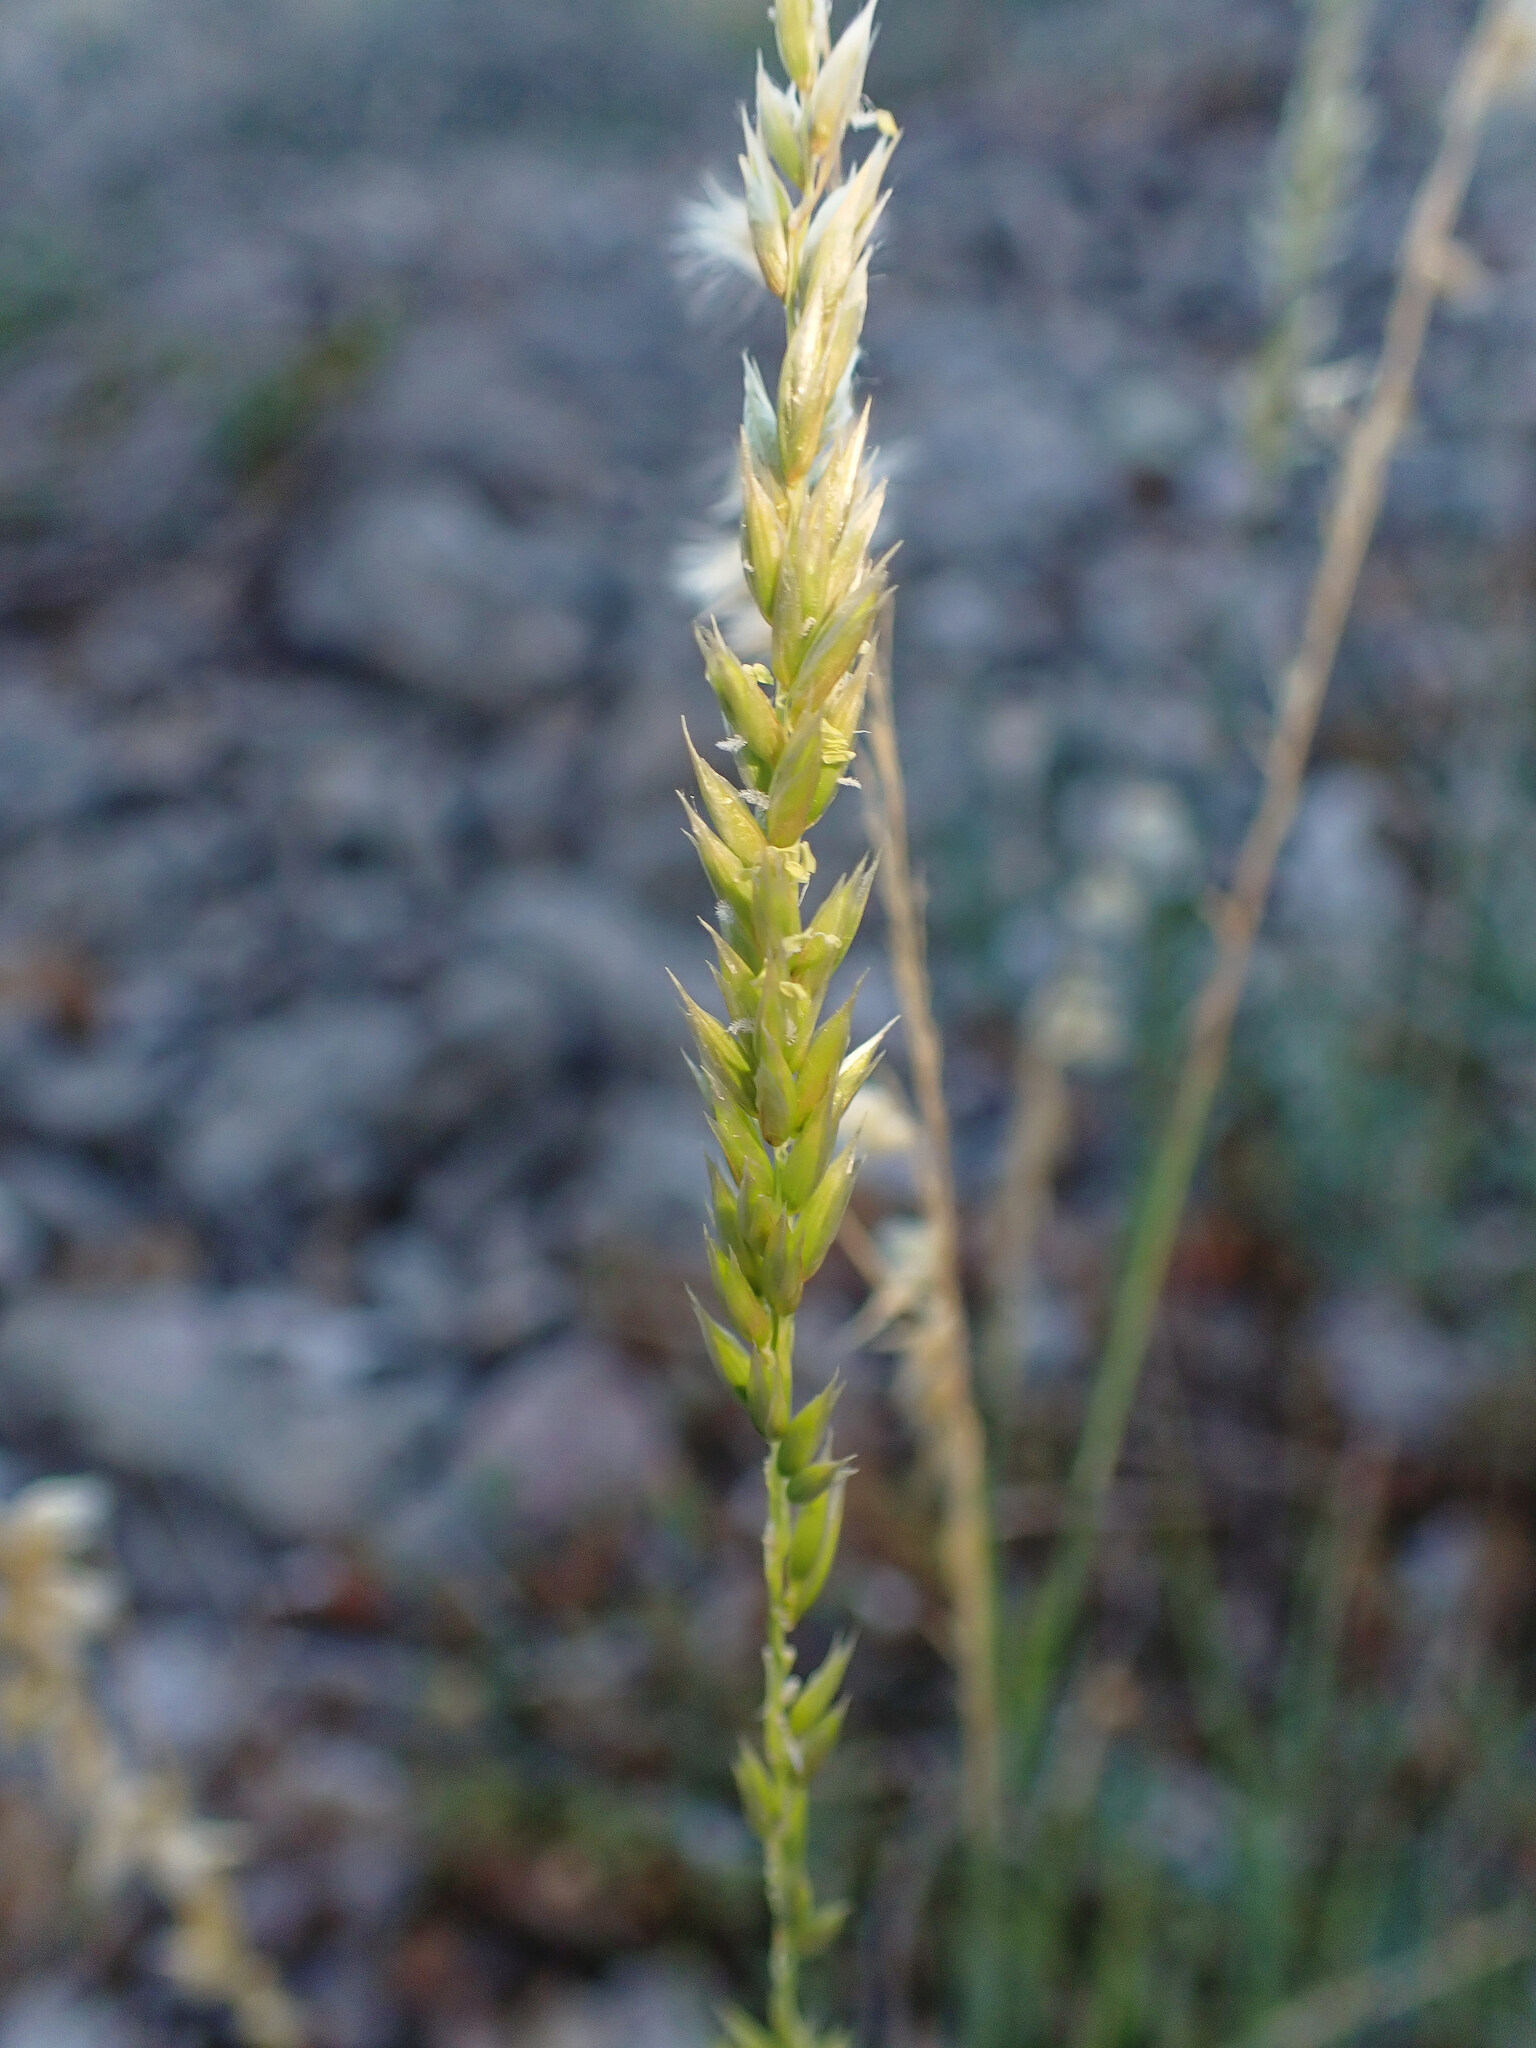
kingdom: Plantae
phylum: Tracheophyta
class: Liliopsida
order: Poales
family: Poaceae
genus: Melica
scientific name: Melica ciliata
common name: Hairy melicgrass
